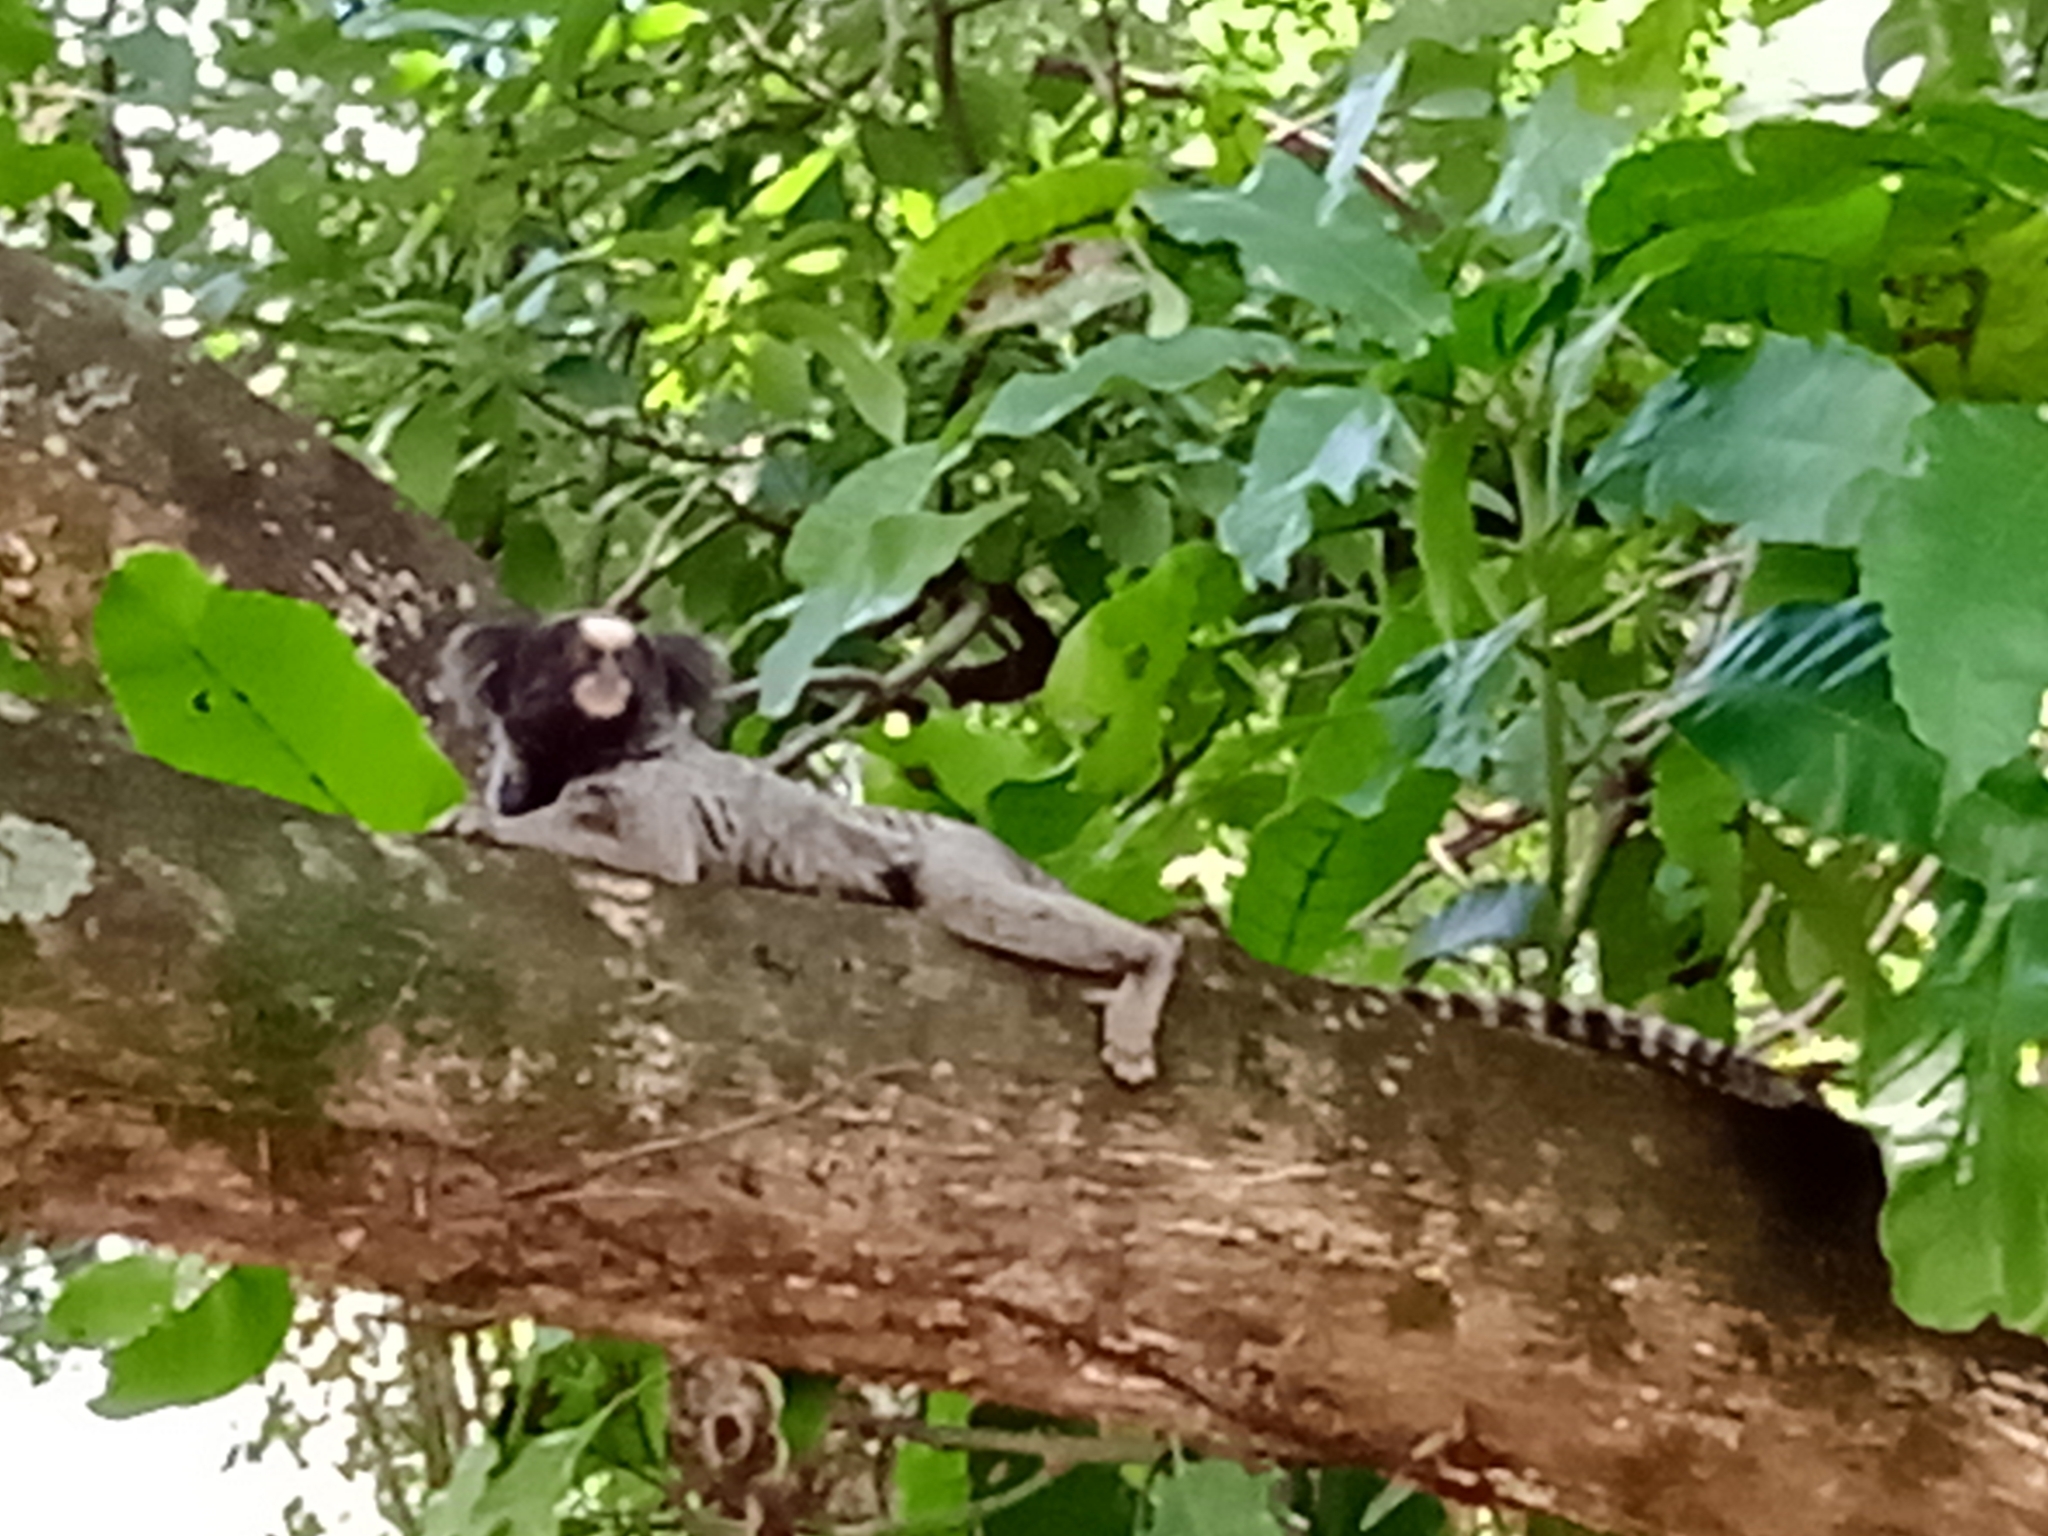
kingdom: Animalia
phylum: Chordata
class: Mammalia
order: Primates
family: Callitrichidae
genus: Callithrix
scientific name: Callithrix penicillata
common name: Black-tufted marmoset
